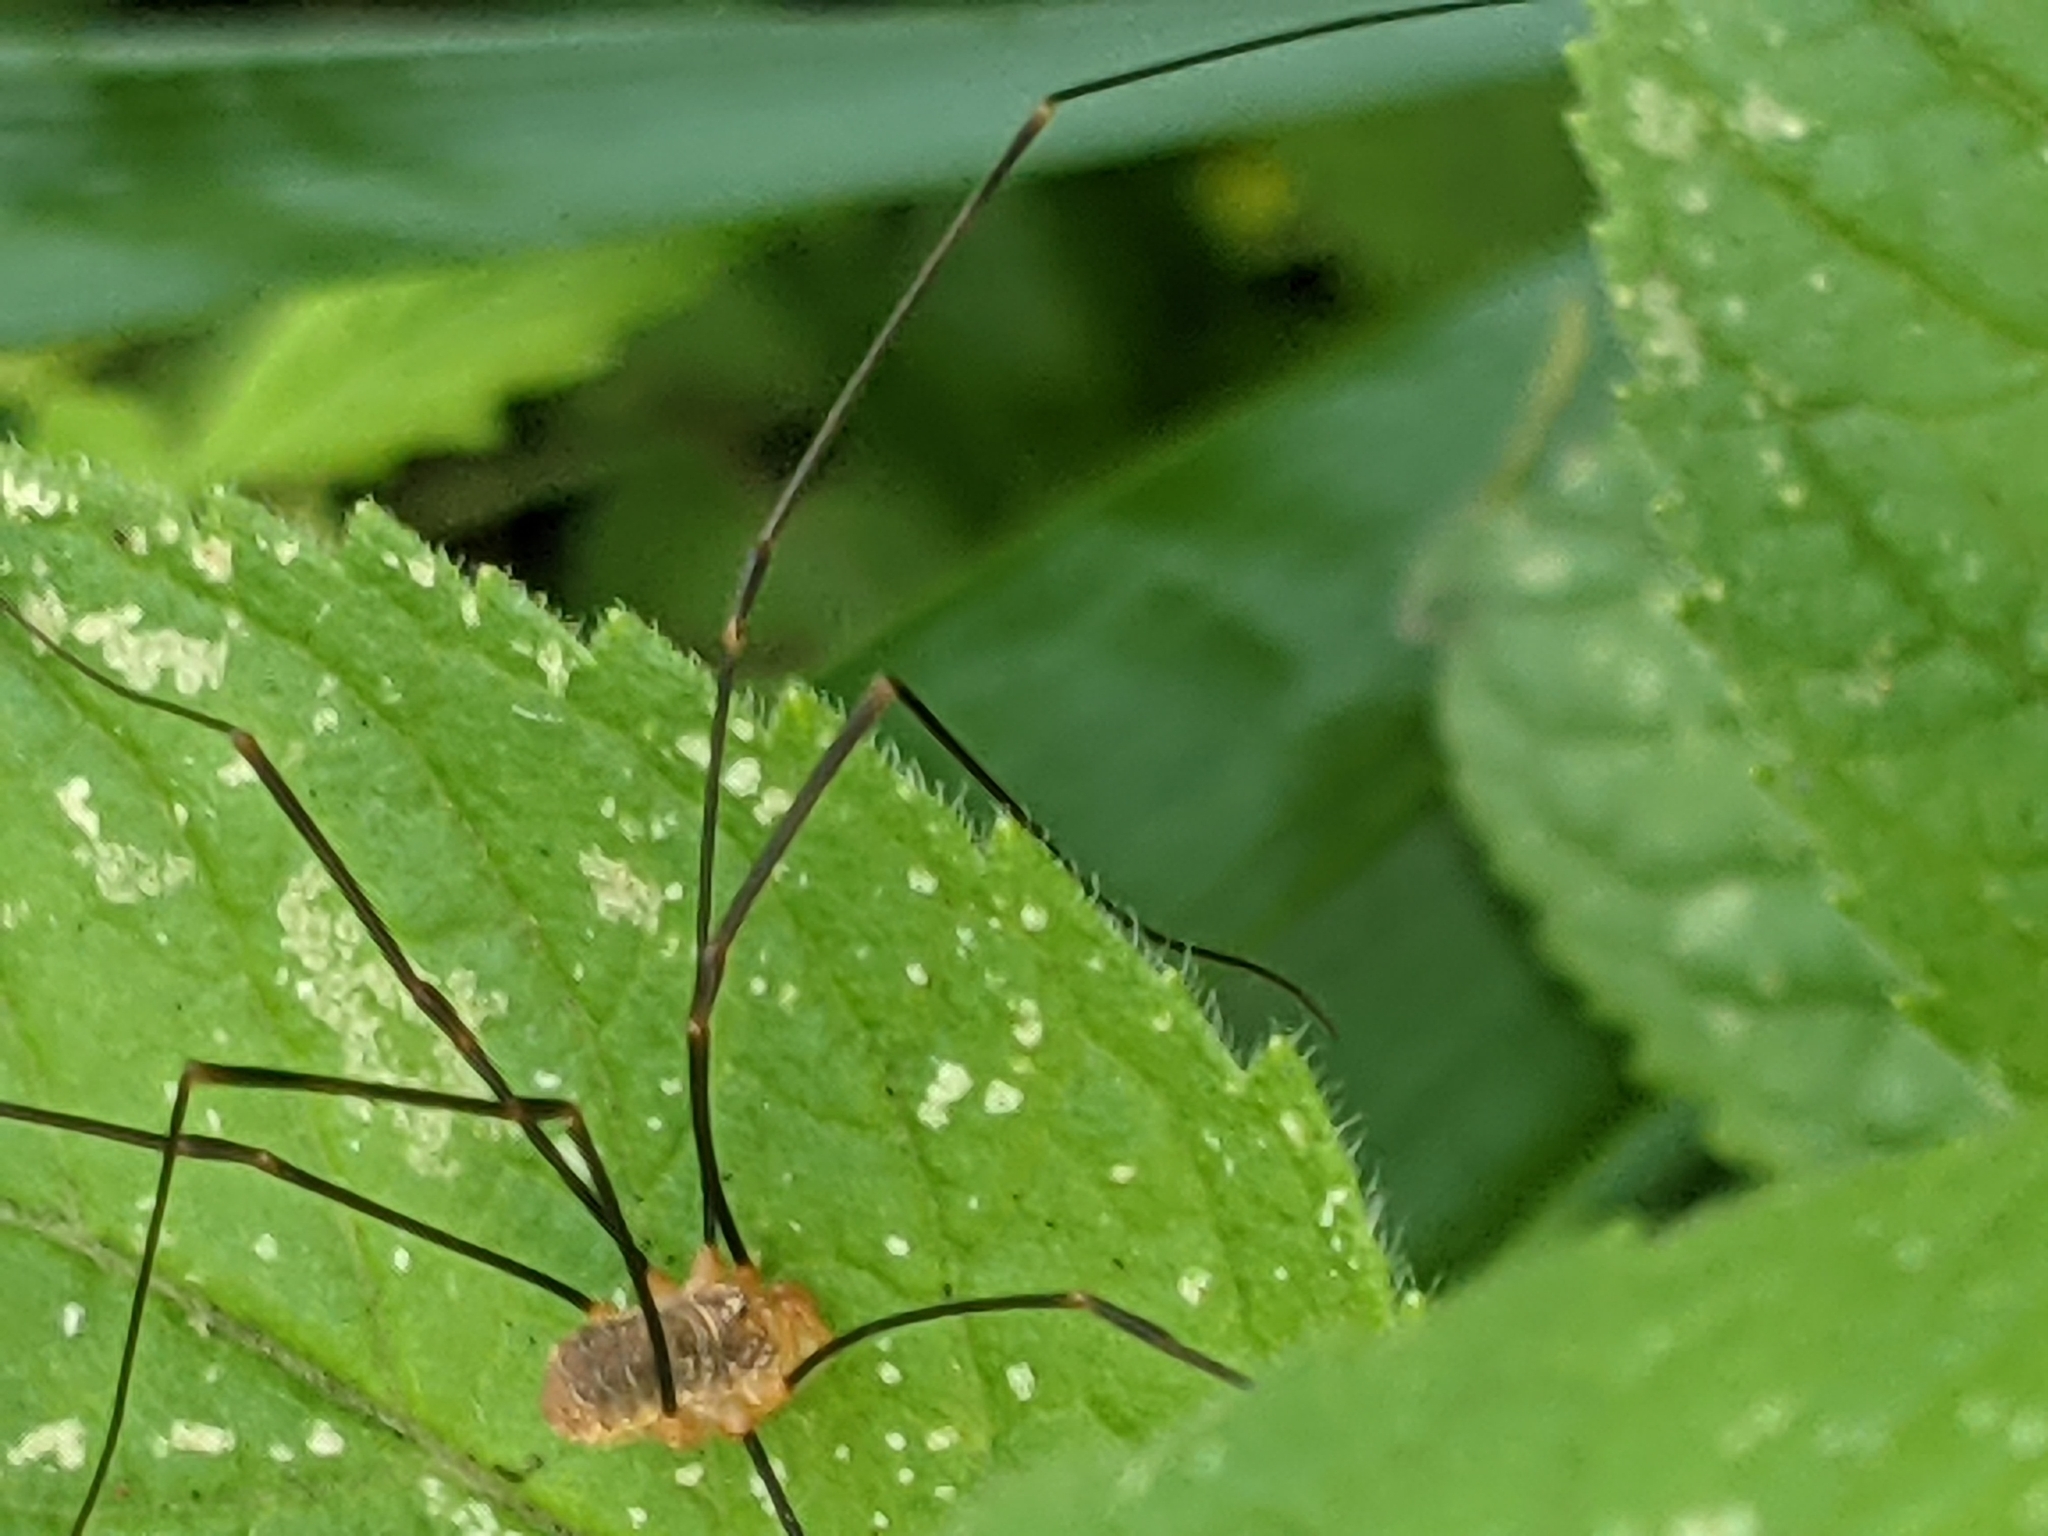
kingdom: Animalia
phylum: Arthropoda
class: Arachnida
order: Opiliones
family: Phalangiidae
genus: Opilio
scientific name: Opilio canestrinii
